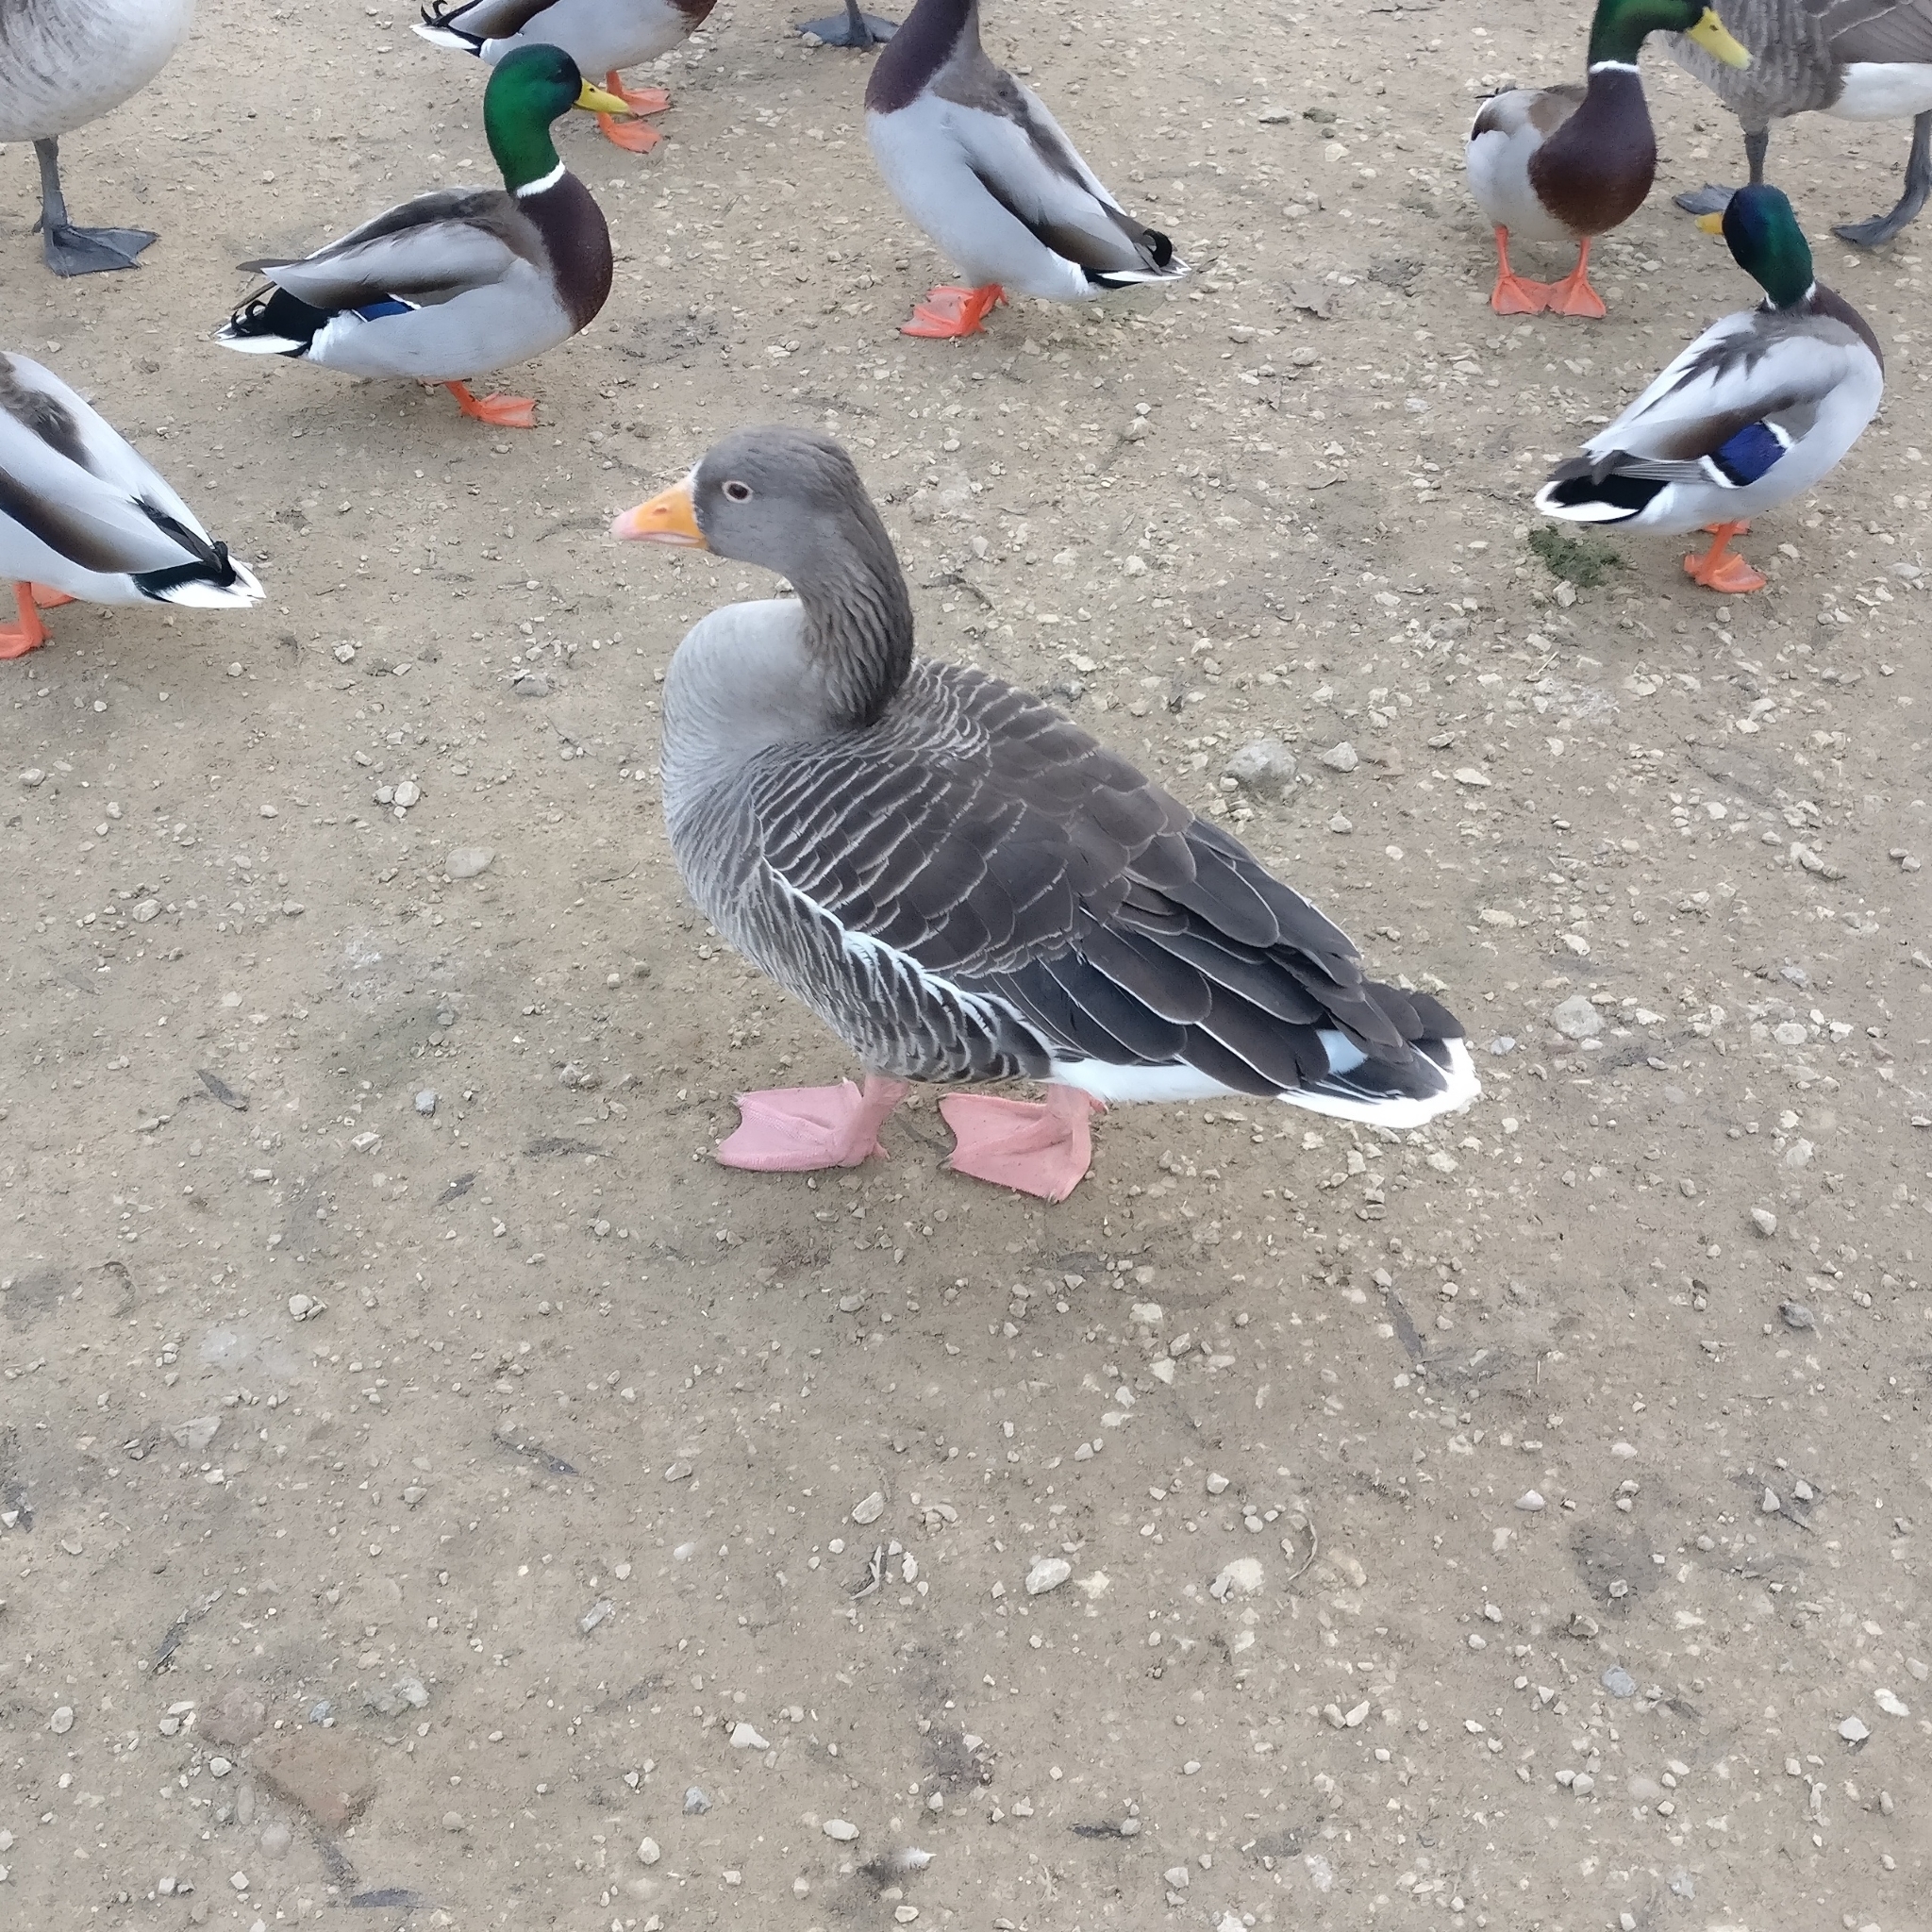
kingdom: Animalia
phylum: Chordata
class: Aves
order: Anseriformes
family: Anatidae
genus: Anser
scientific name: Anser anser
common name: Greylag goose
